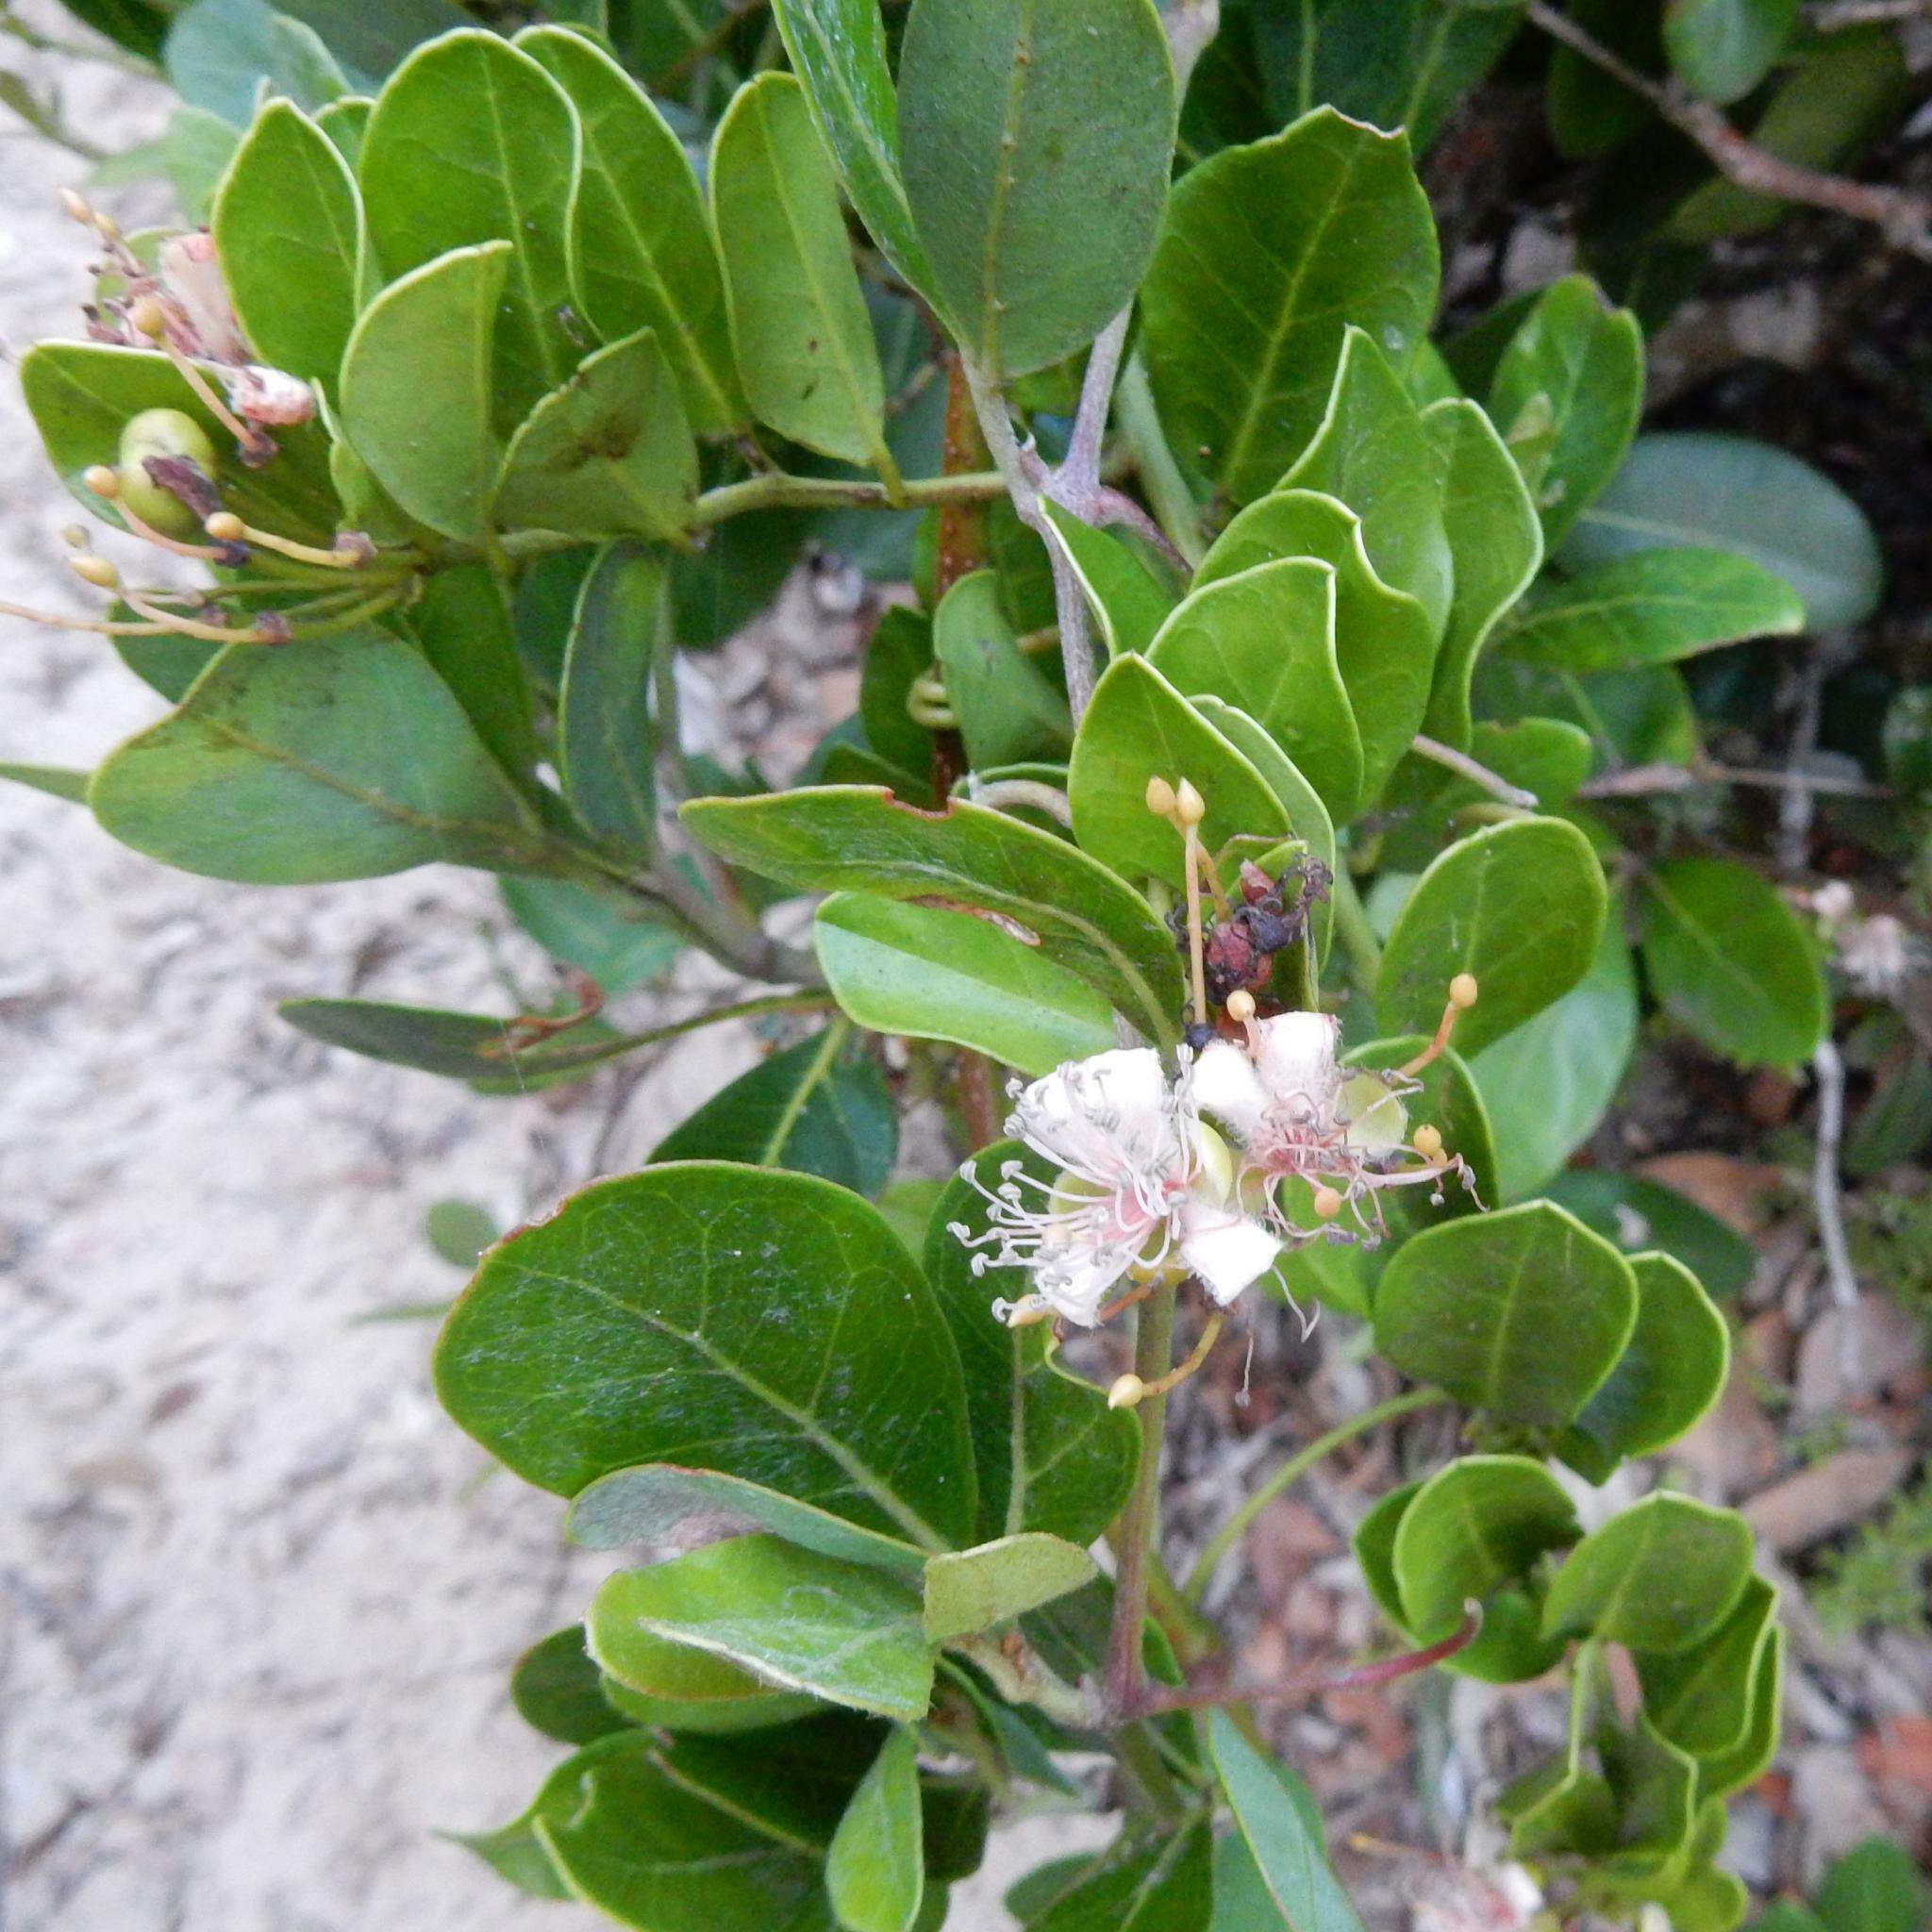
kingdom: Plantae
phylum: Tracheophyta
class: Magnoliopsida
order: Brassicales
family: Capparaceae
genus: Capparis
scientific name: Capparis sepiaria
